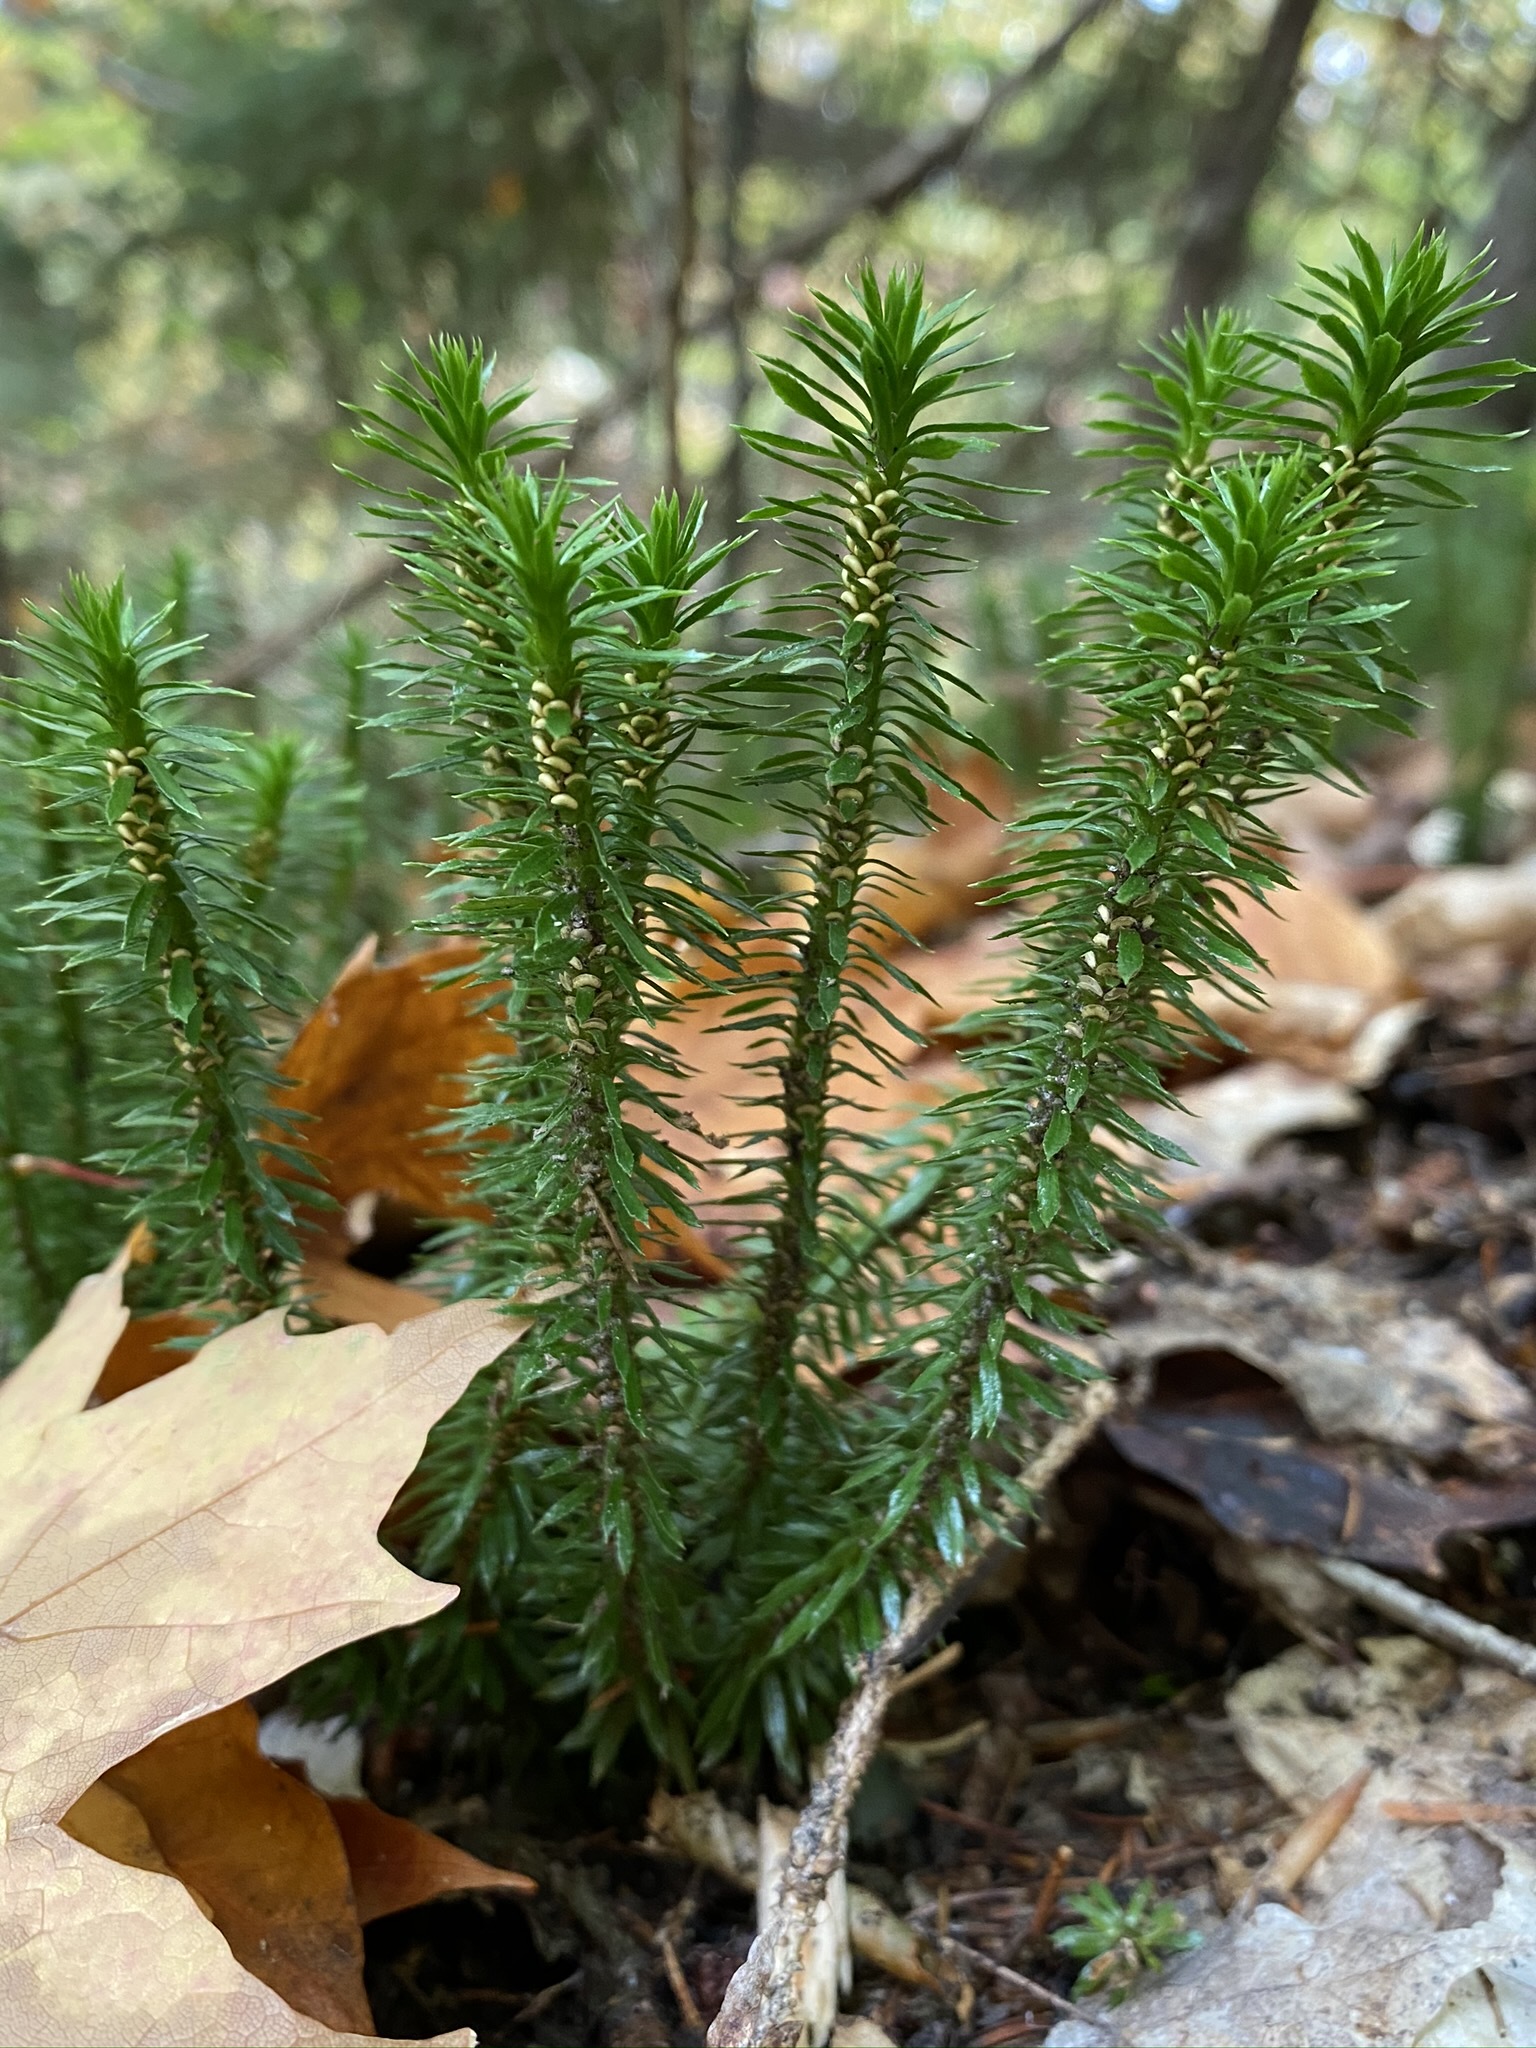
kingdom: Plantae
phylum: Tracheophyta
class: Lycopodiopsida
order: Lycopodiales
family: Lycopodiaceae
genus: Huperzia
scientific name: Huperzia lucidula
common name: Shining clubmoss
